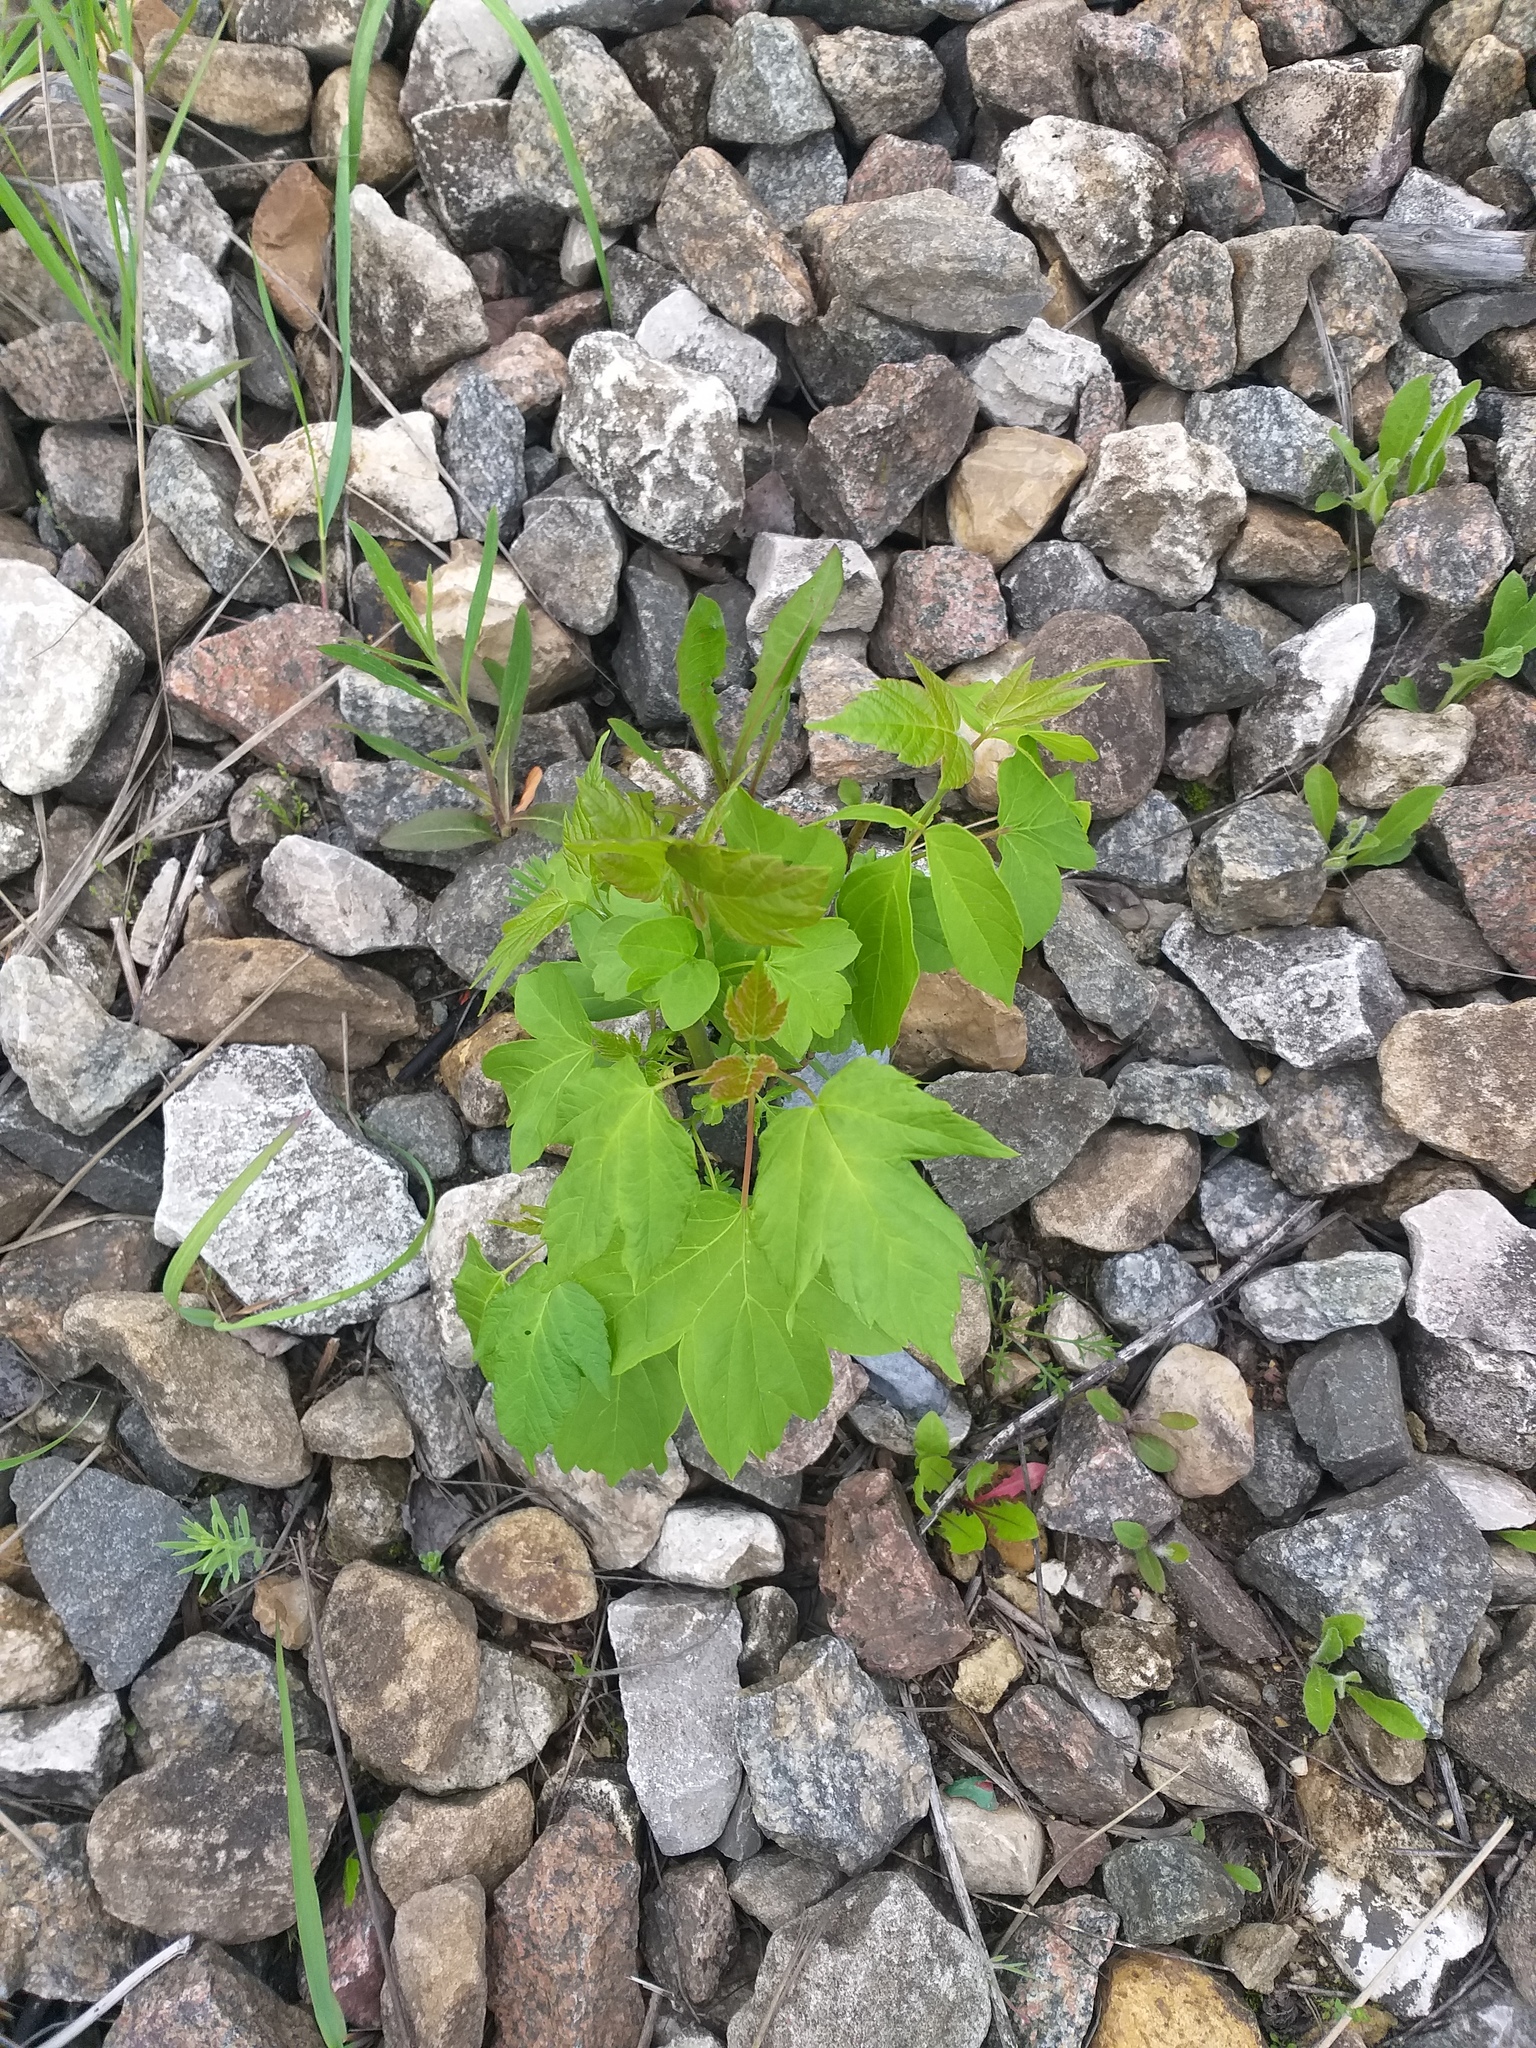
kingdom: Plantae
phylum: Tracheophyta
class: Magnoliopsida
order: Sapindales
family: Sapindaceae
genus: Acer
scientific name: Acer negundo
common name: Ashleaf maple
